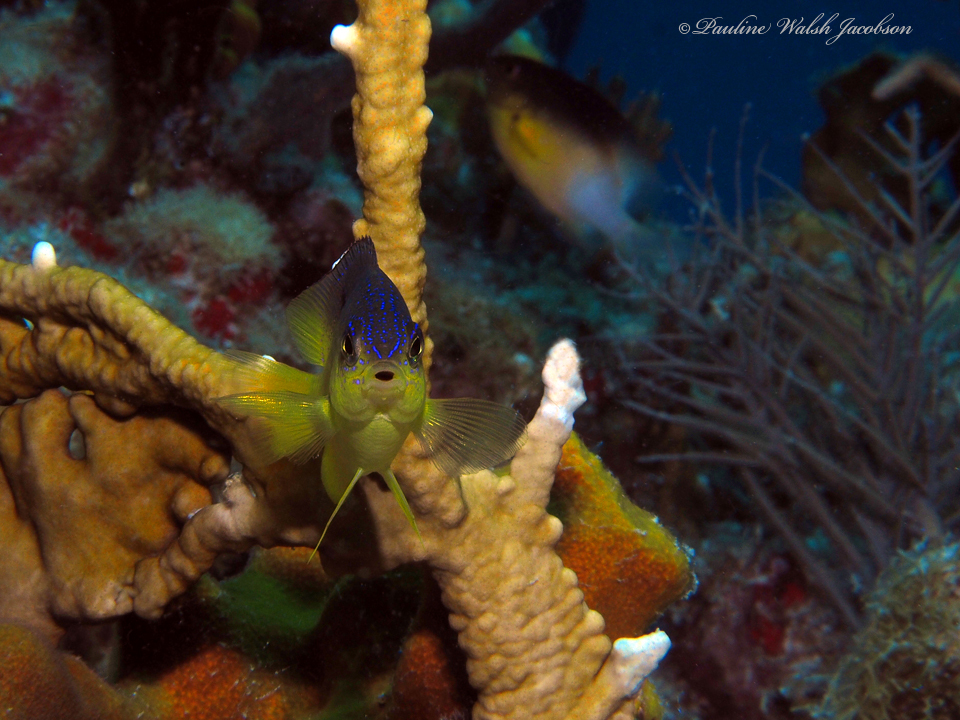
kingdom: Animalia
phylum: Chordata
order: Perciformes
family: Pomacentridae
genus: Stegastes
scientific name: Stegastes leucostictus
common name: Beaugregory
